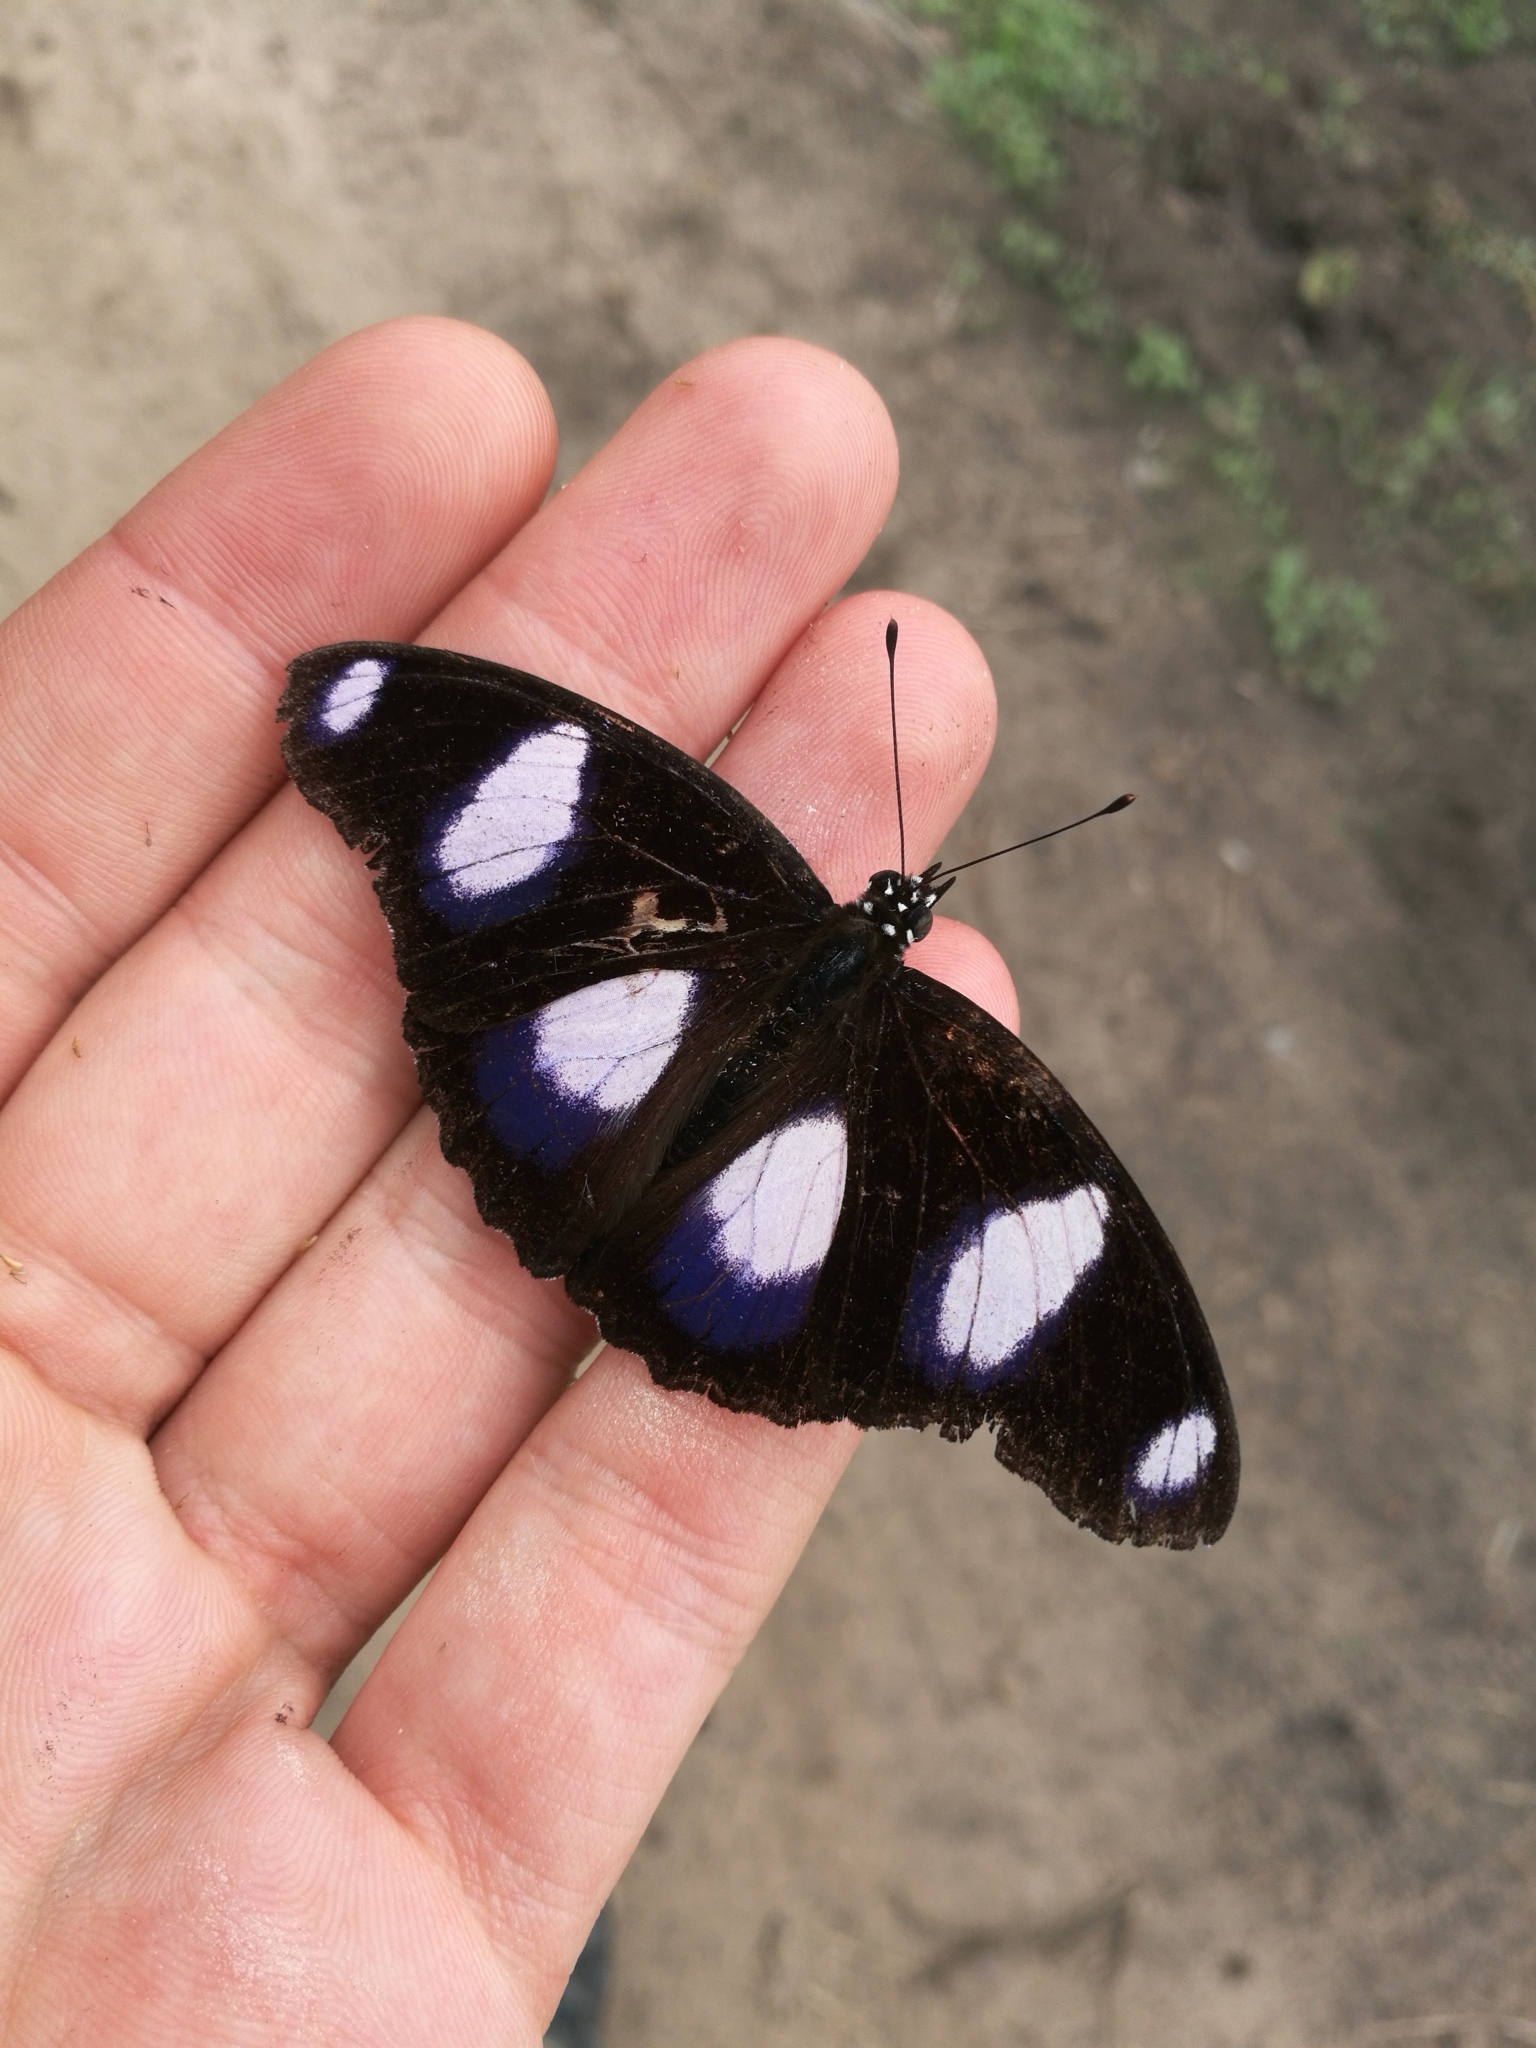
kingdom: Animalia
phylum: Arthropoda
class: Insecta
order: Lepidoptera
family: Nymphalidae
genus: Hypolimnas
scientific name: Hypolimnas misippus
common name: False plain tiger
